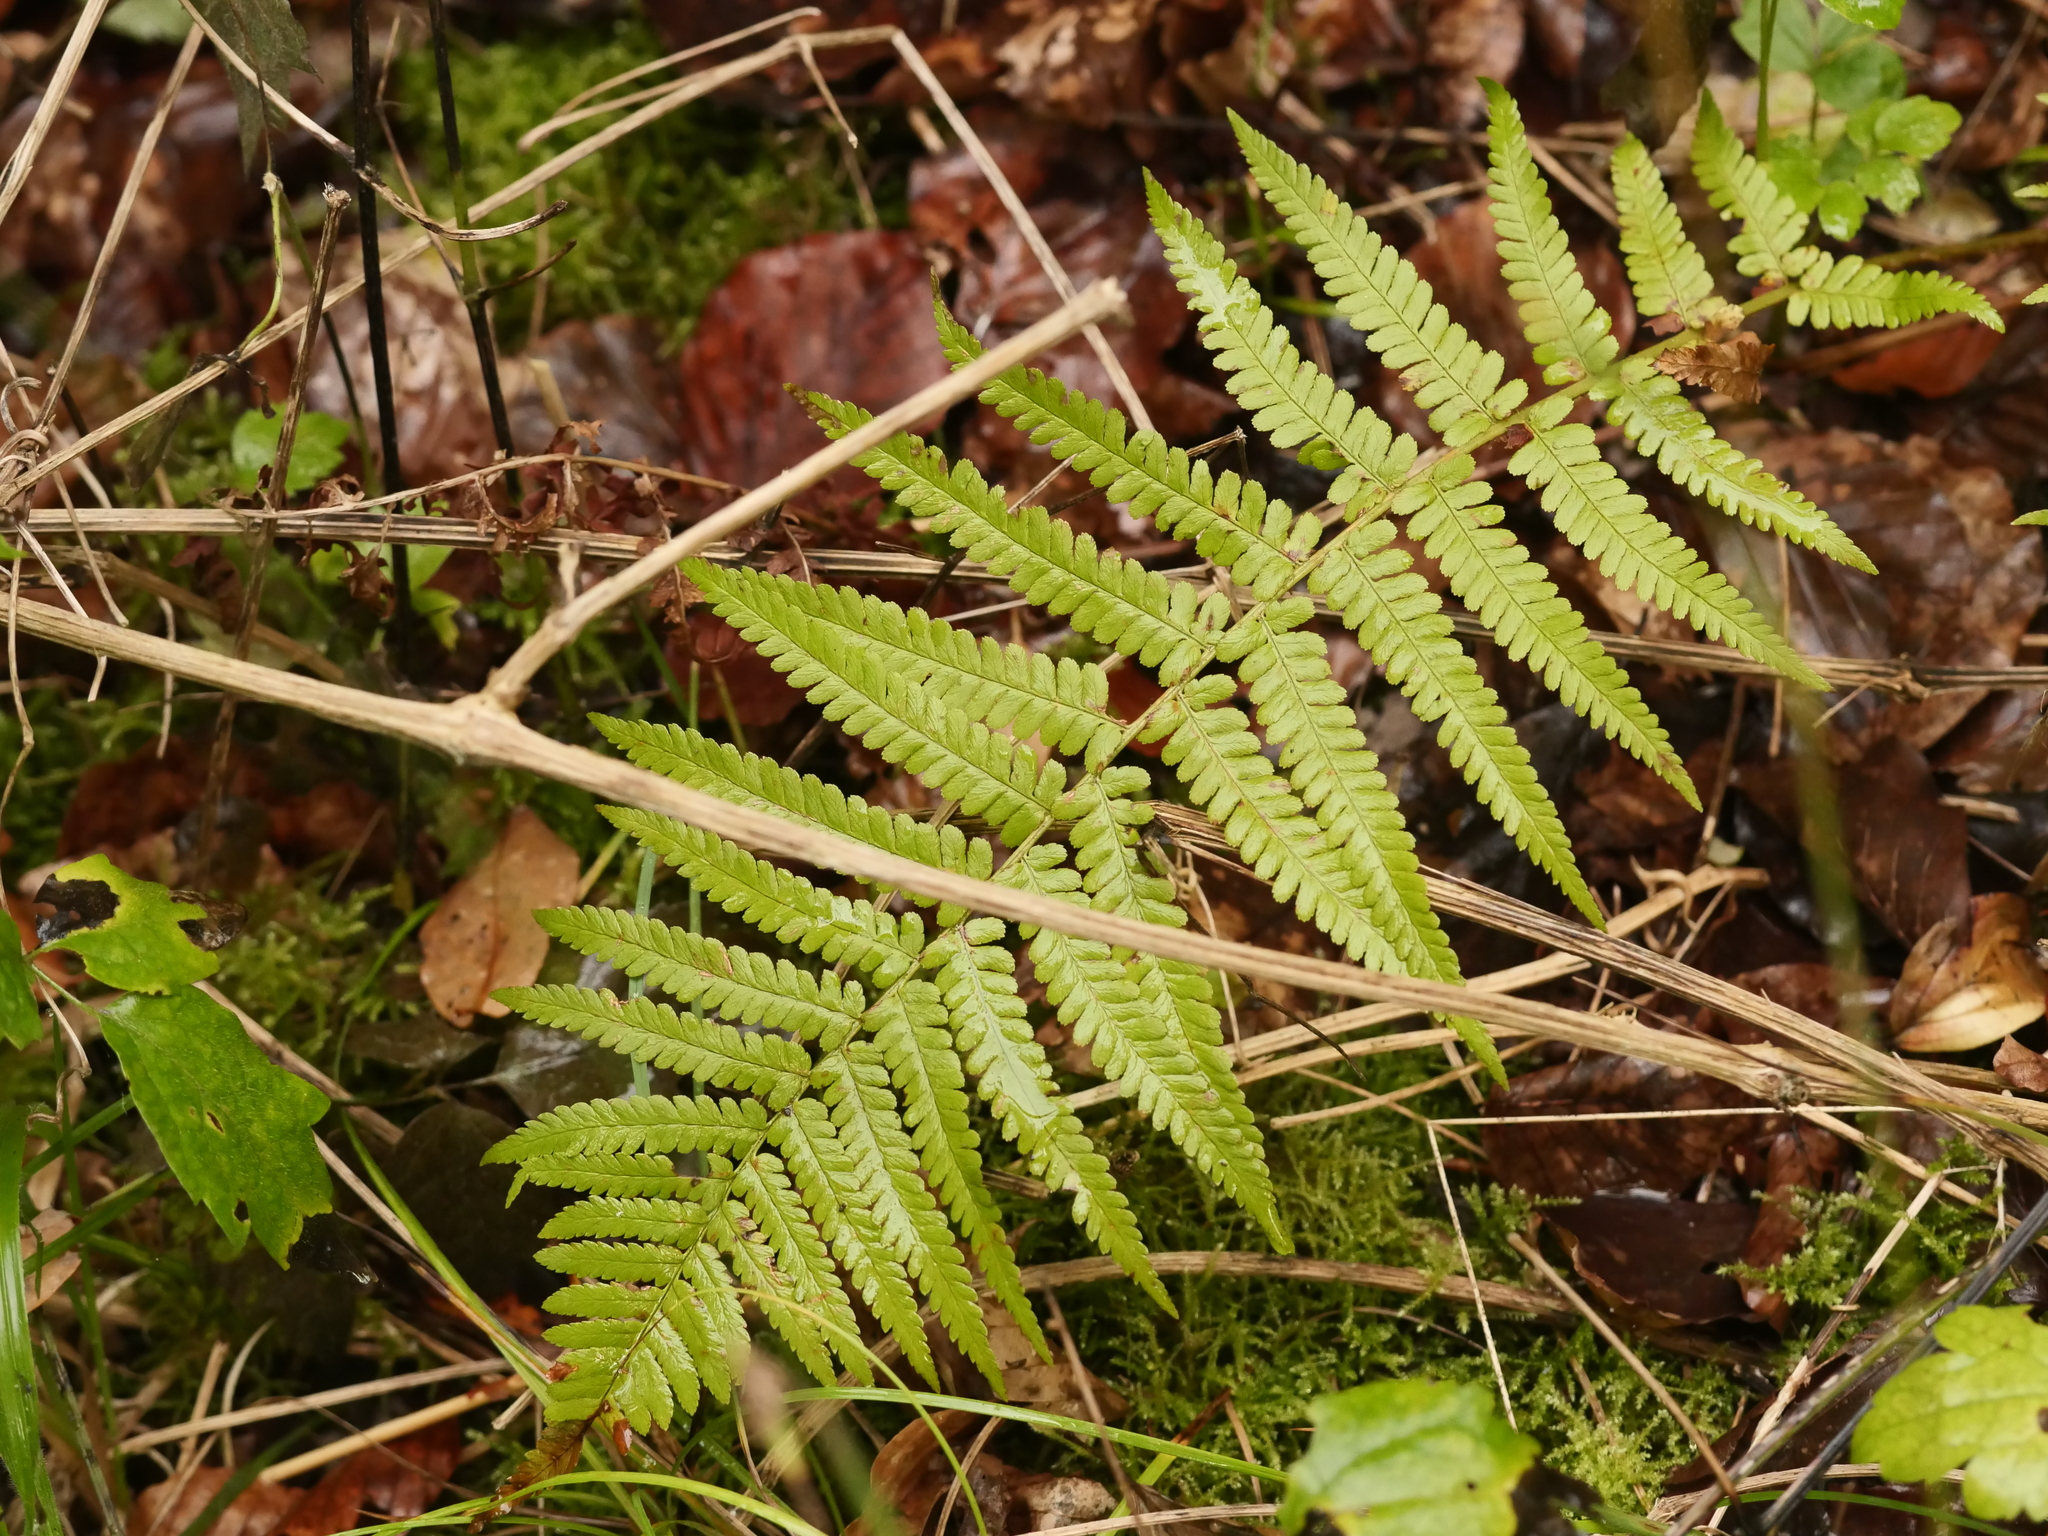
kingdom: Plantae
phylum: Tracheophyta
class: Polypodiopsida
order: Polypodiales
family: Dryopteridaceae
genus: Dryopteris
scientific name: Dryopteris filix-mas
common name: Male fern
